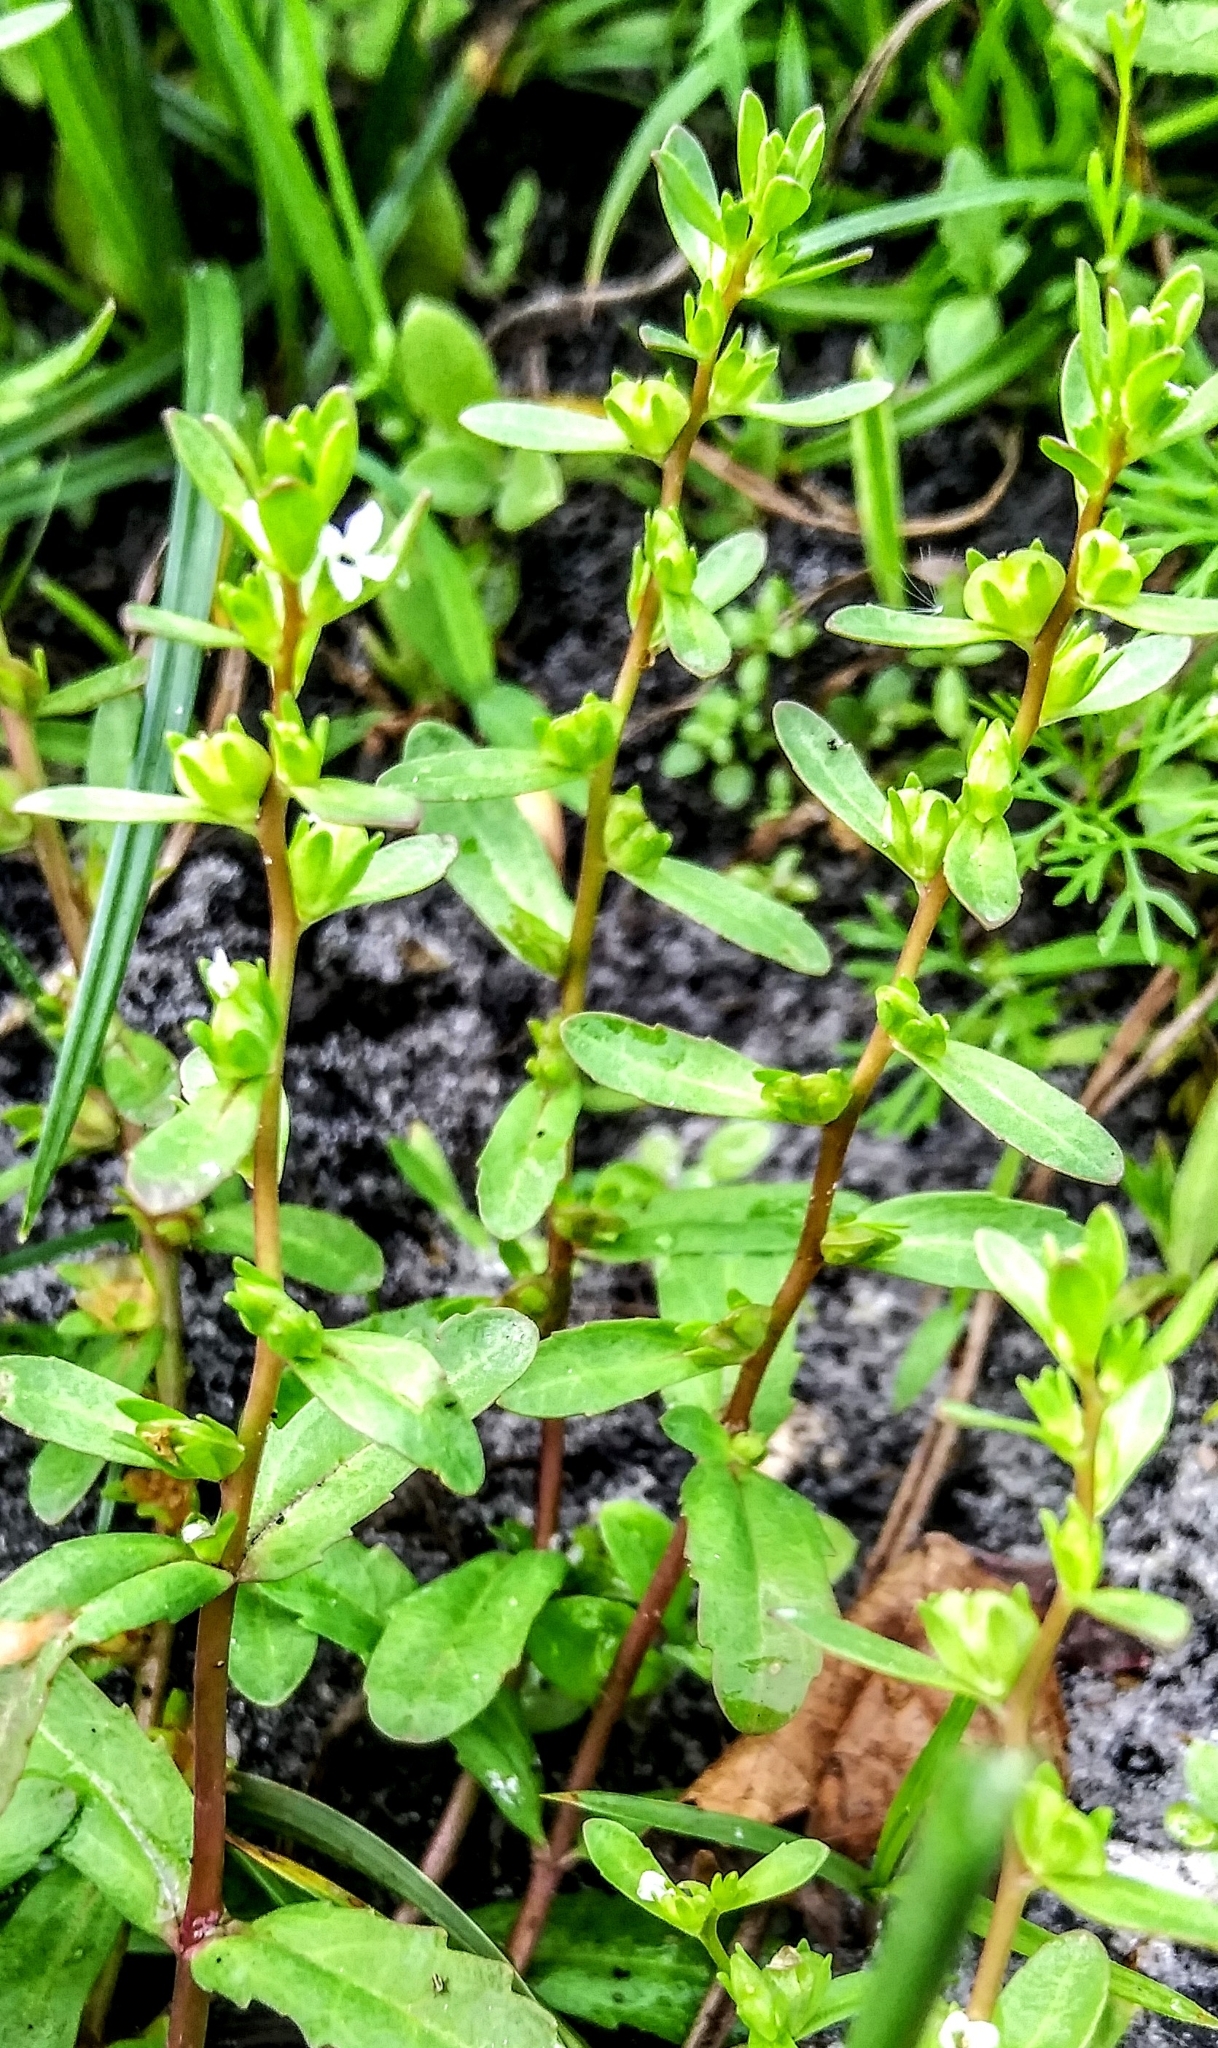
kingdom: Plantae
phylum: Tracheophyta
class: Magnoliopsida
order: Lamiales
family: Plantaginaceae
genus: Veronica
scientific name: Veronica peregrina
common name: Neckweed
